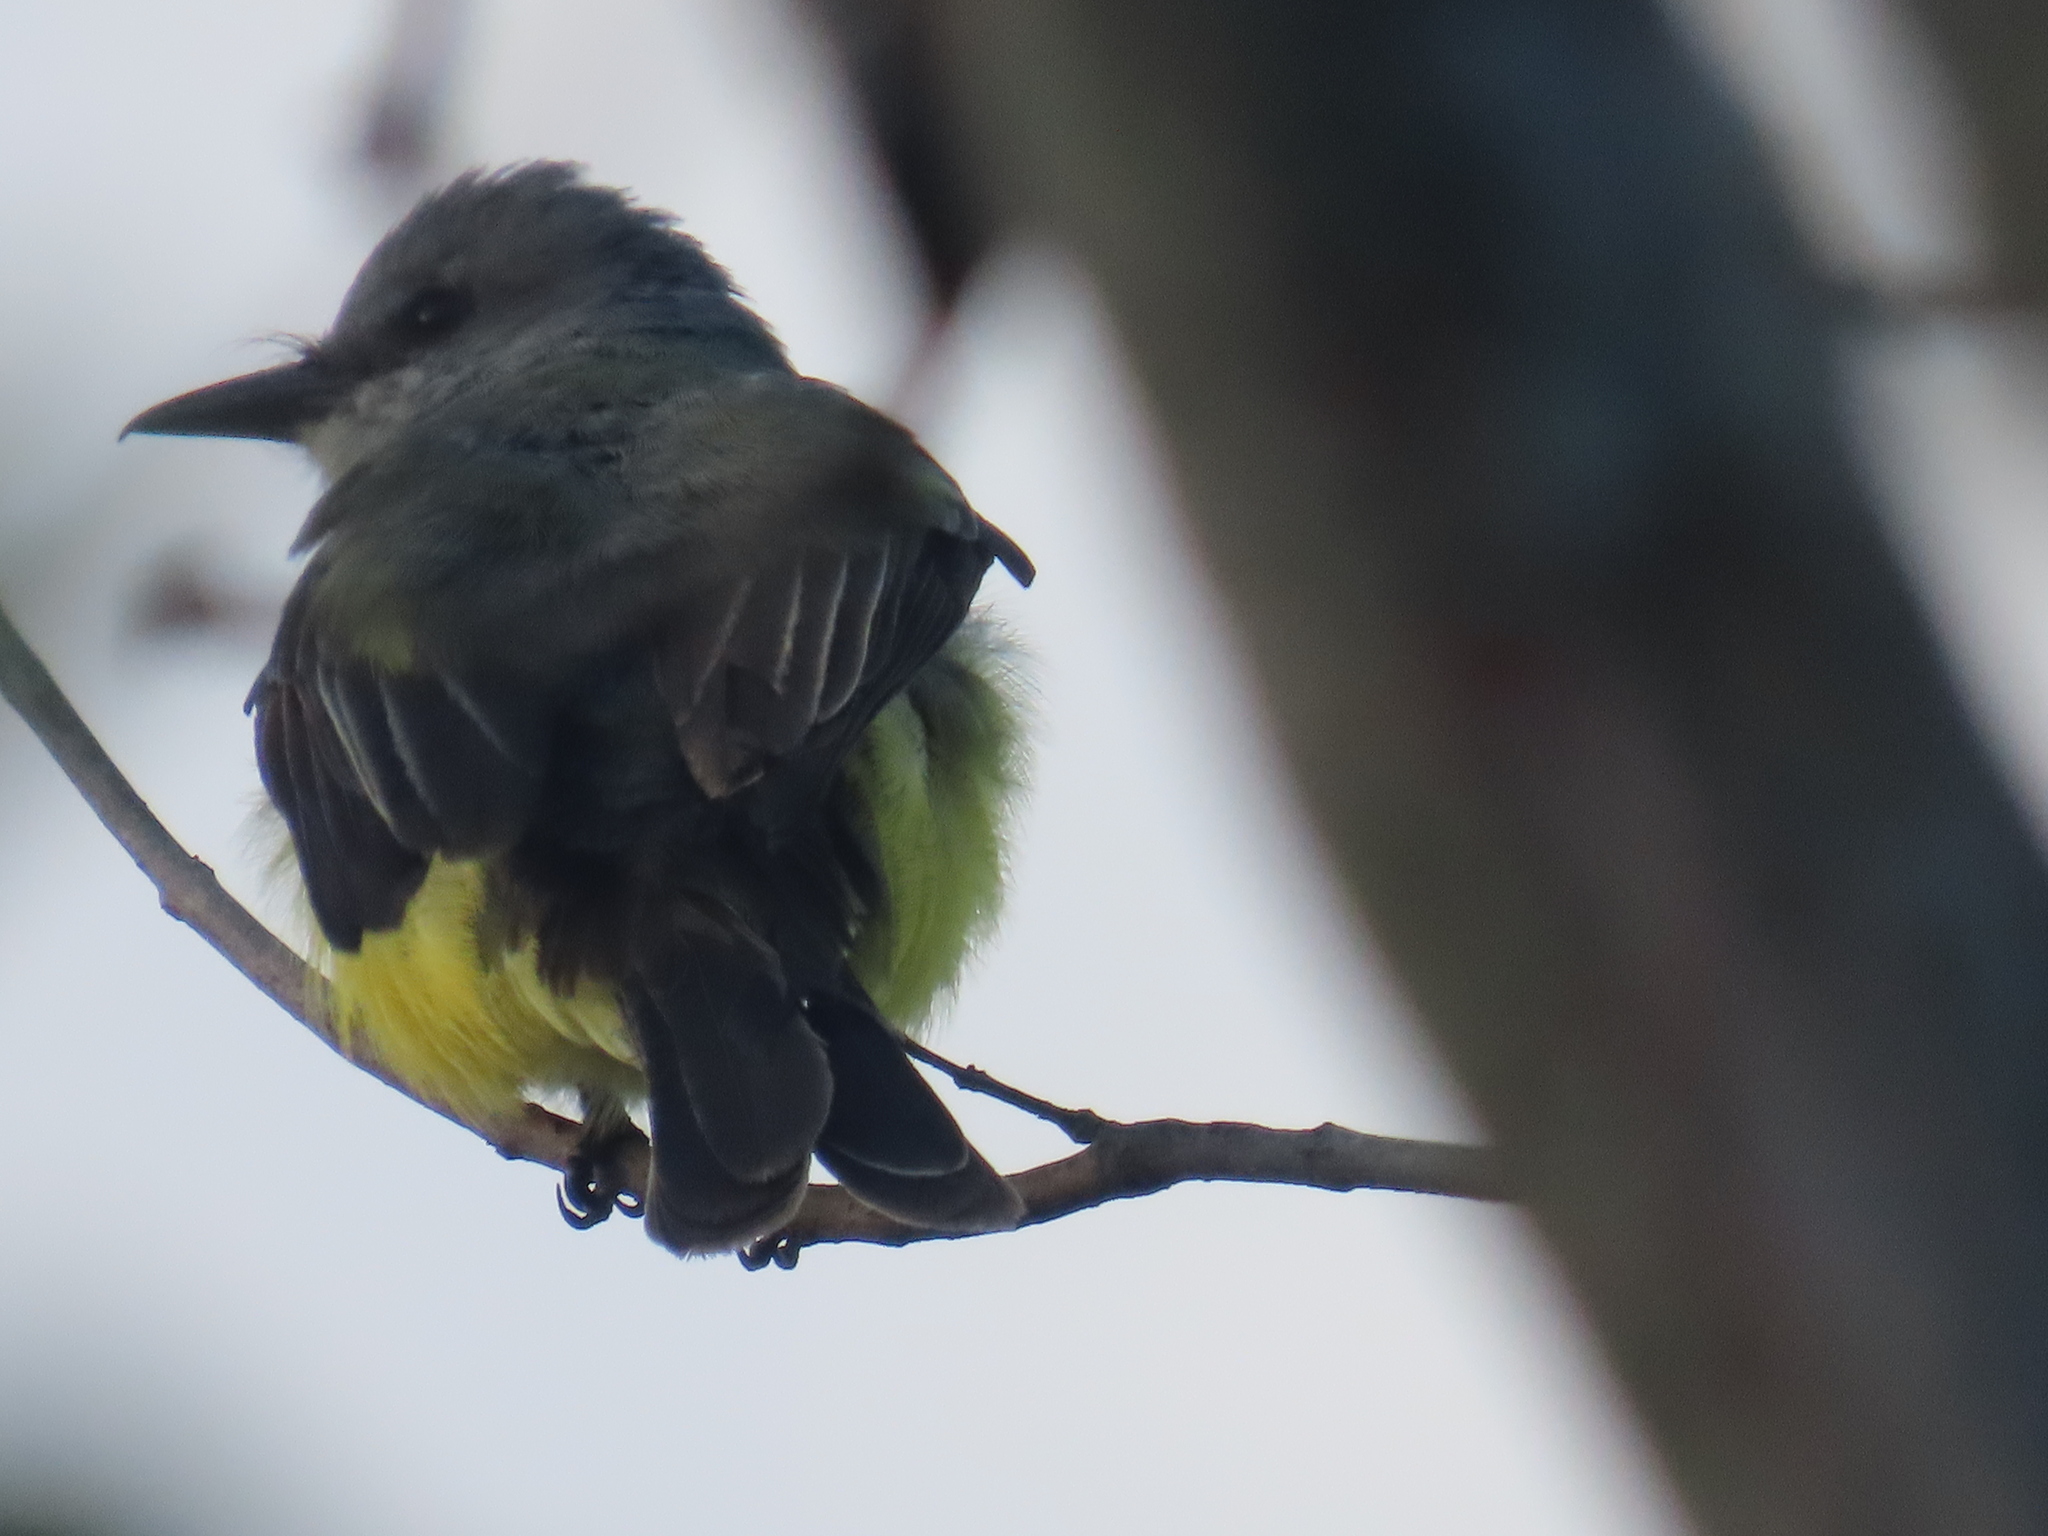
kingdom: Animalia
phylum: Chordata
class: Aves
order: Passeriformes
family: Tyrannidae
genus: Tyrannus
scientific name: Tyrannus melancholicus
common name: Tropical kingbird
